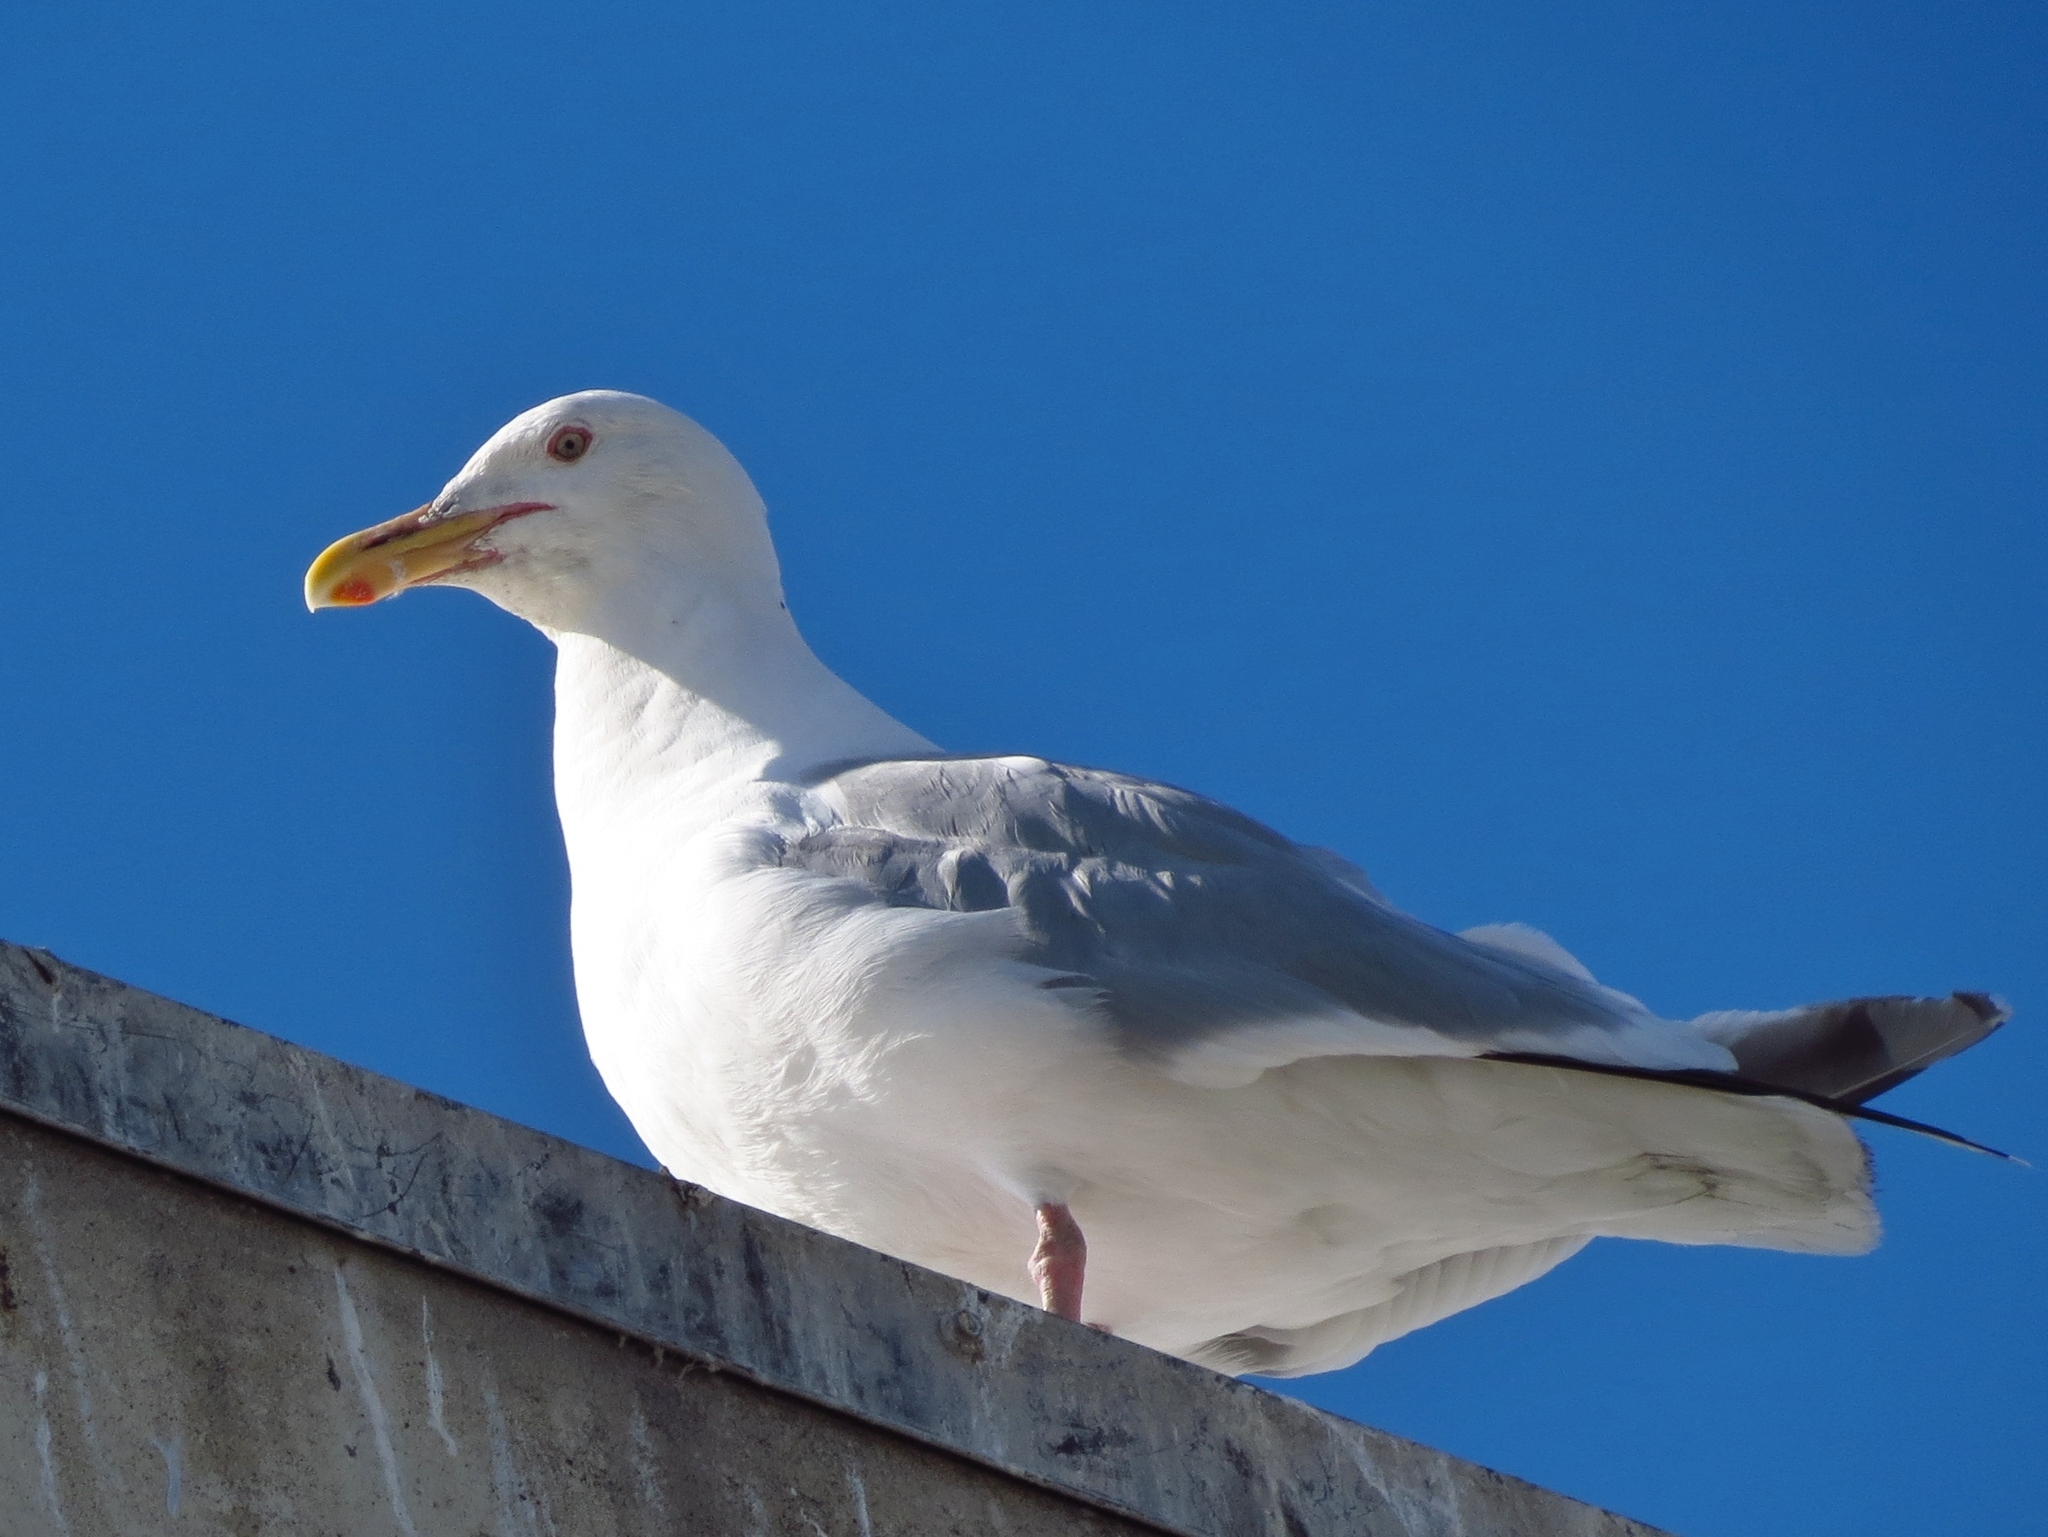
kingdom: Animalia
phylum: Chordata
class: Aves
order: Charadriiformes
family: Laridae
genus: Larus
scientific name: Larus argentatus
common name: Herring gull
